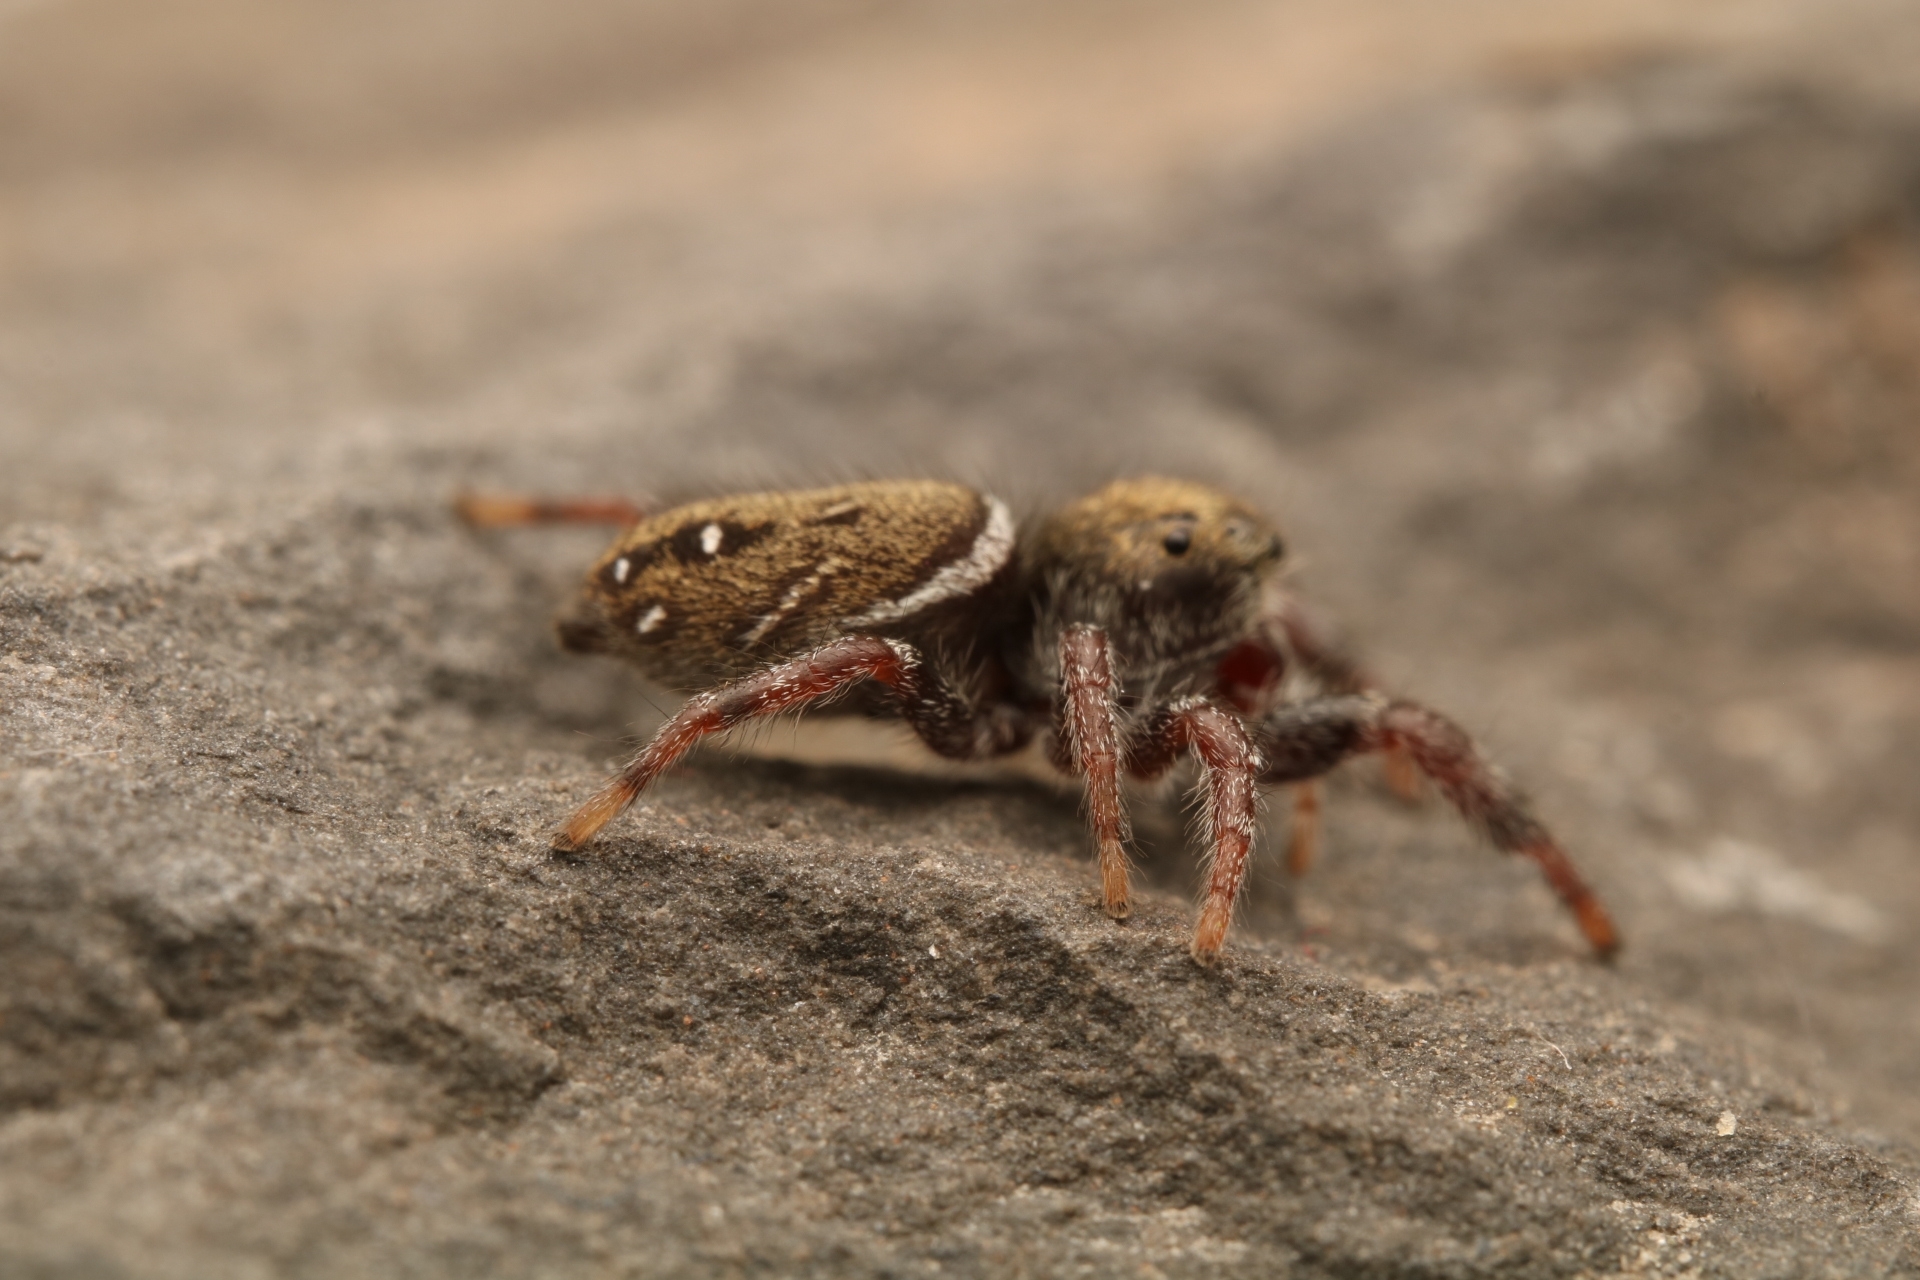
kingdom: Animalia
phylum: Arthropoda
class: Arachnida
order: Araneae
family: Salticidae
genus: Phidippus
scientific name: Phidippus whitmani
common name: Whitman's jumping spider
